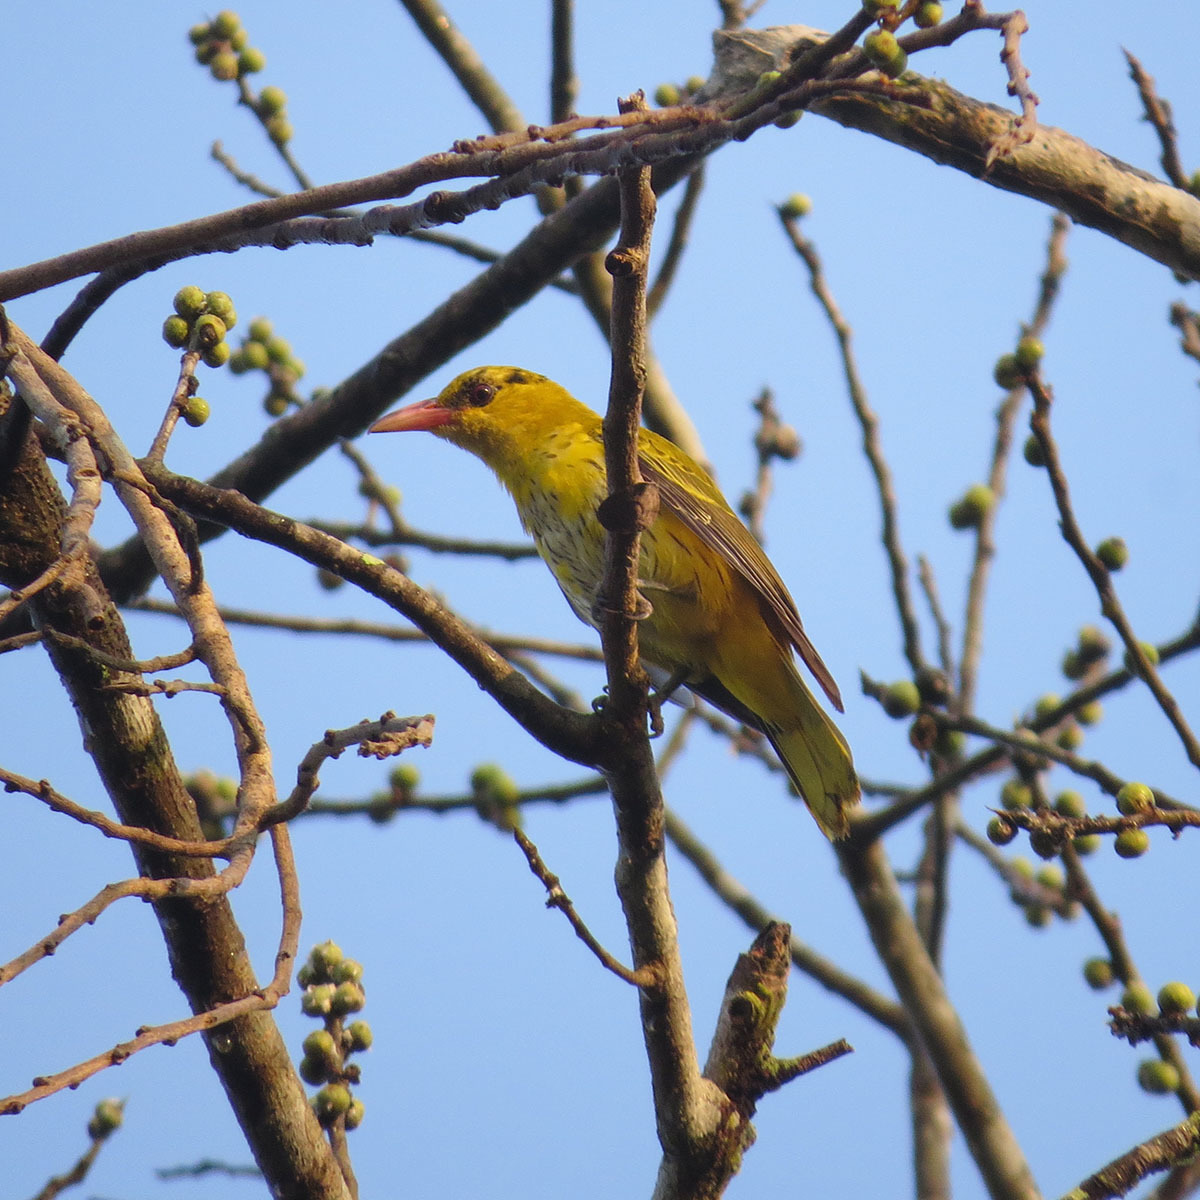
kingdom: Animalia
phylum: Chordata
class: Aves
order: Passeriformes
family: Oriolidae
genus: Oriolus
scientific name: Oriolus chinensis
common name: Black-naped oriole
